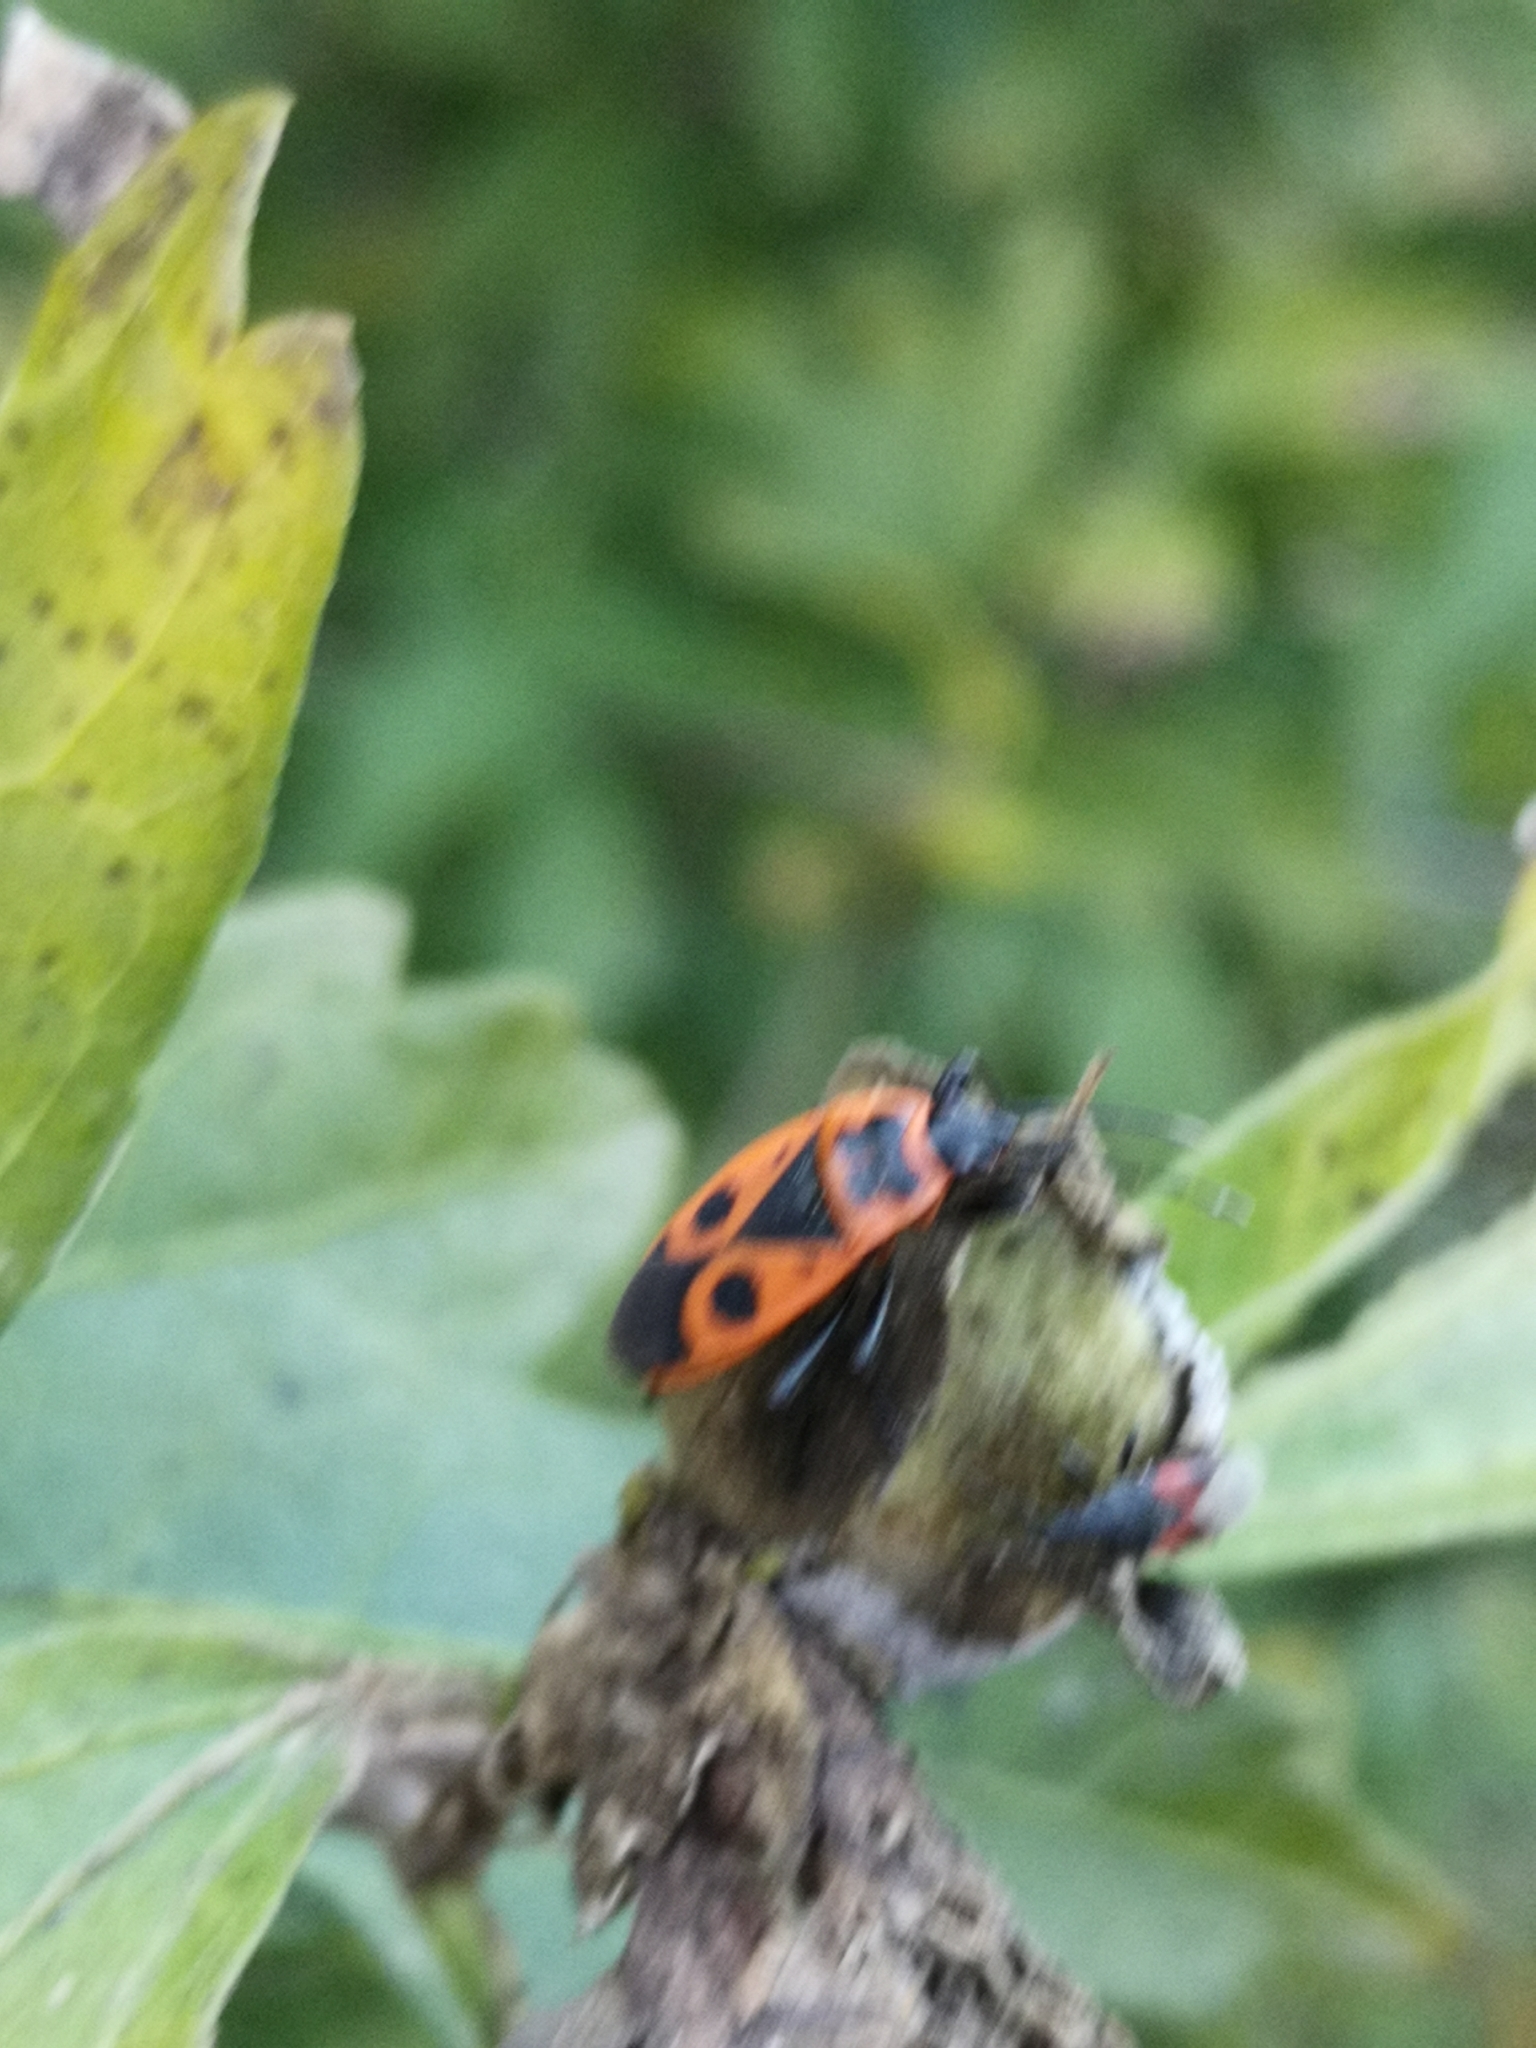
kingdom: Animalia
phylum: Arthropoda
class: Insecta
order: Hemiptera
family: Pyrrhocoridae
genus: Pyrrhocoris
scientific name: Pyrrhocoris apterus
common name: Firebug
